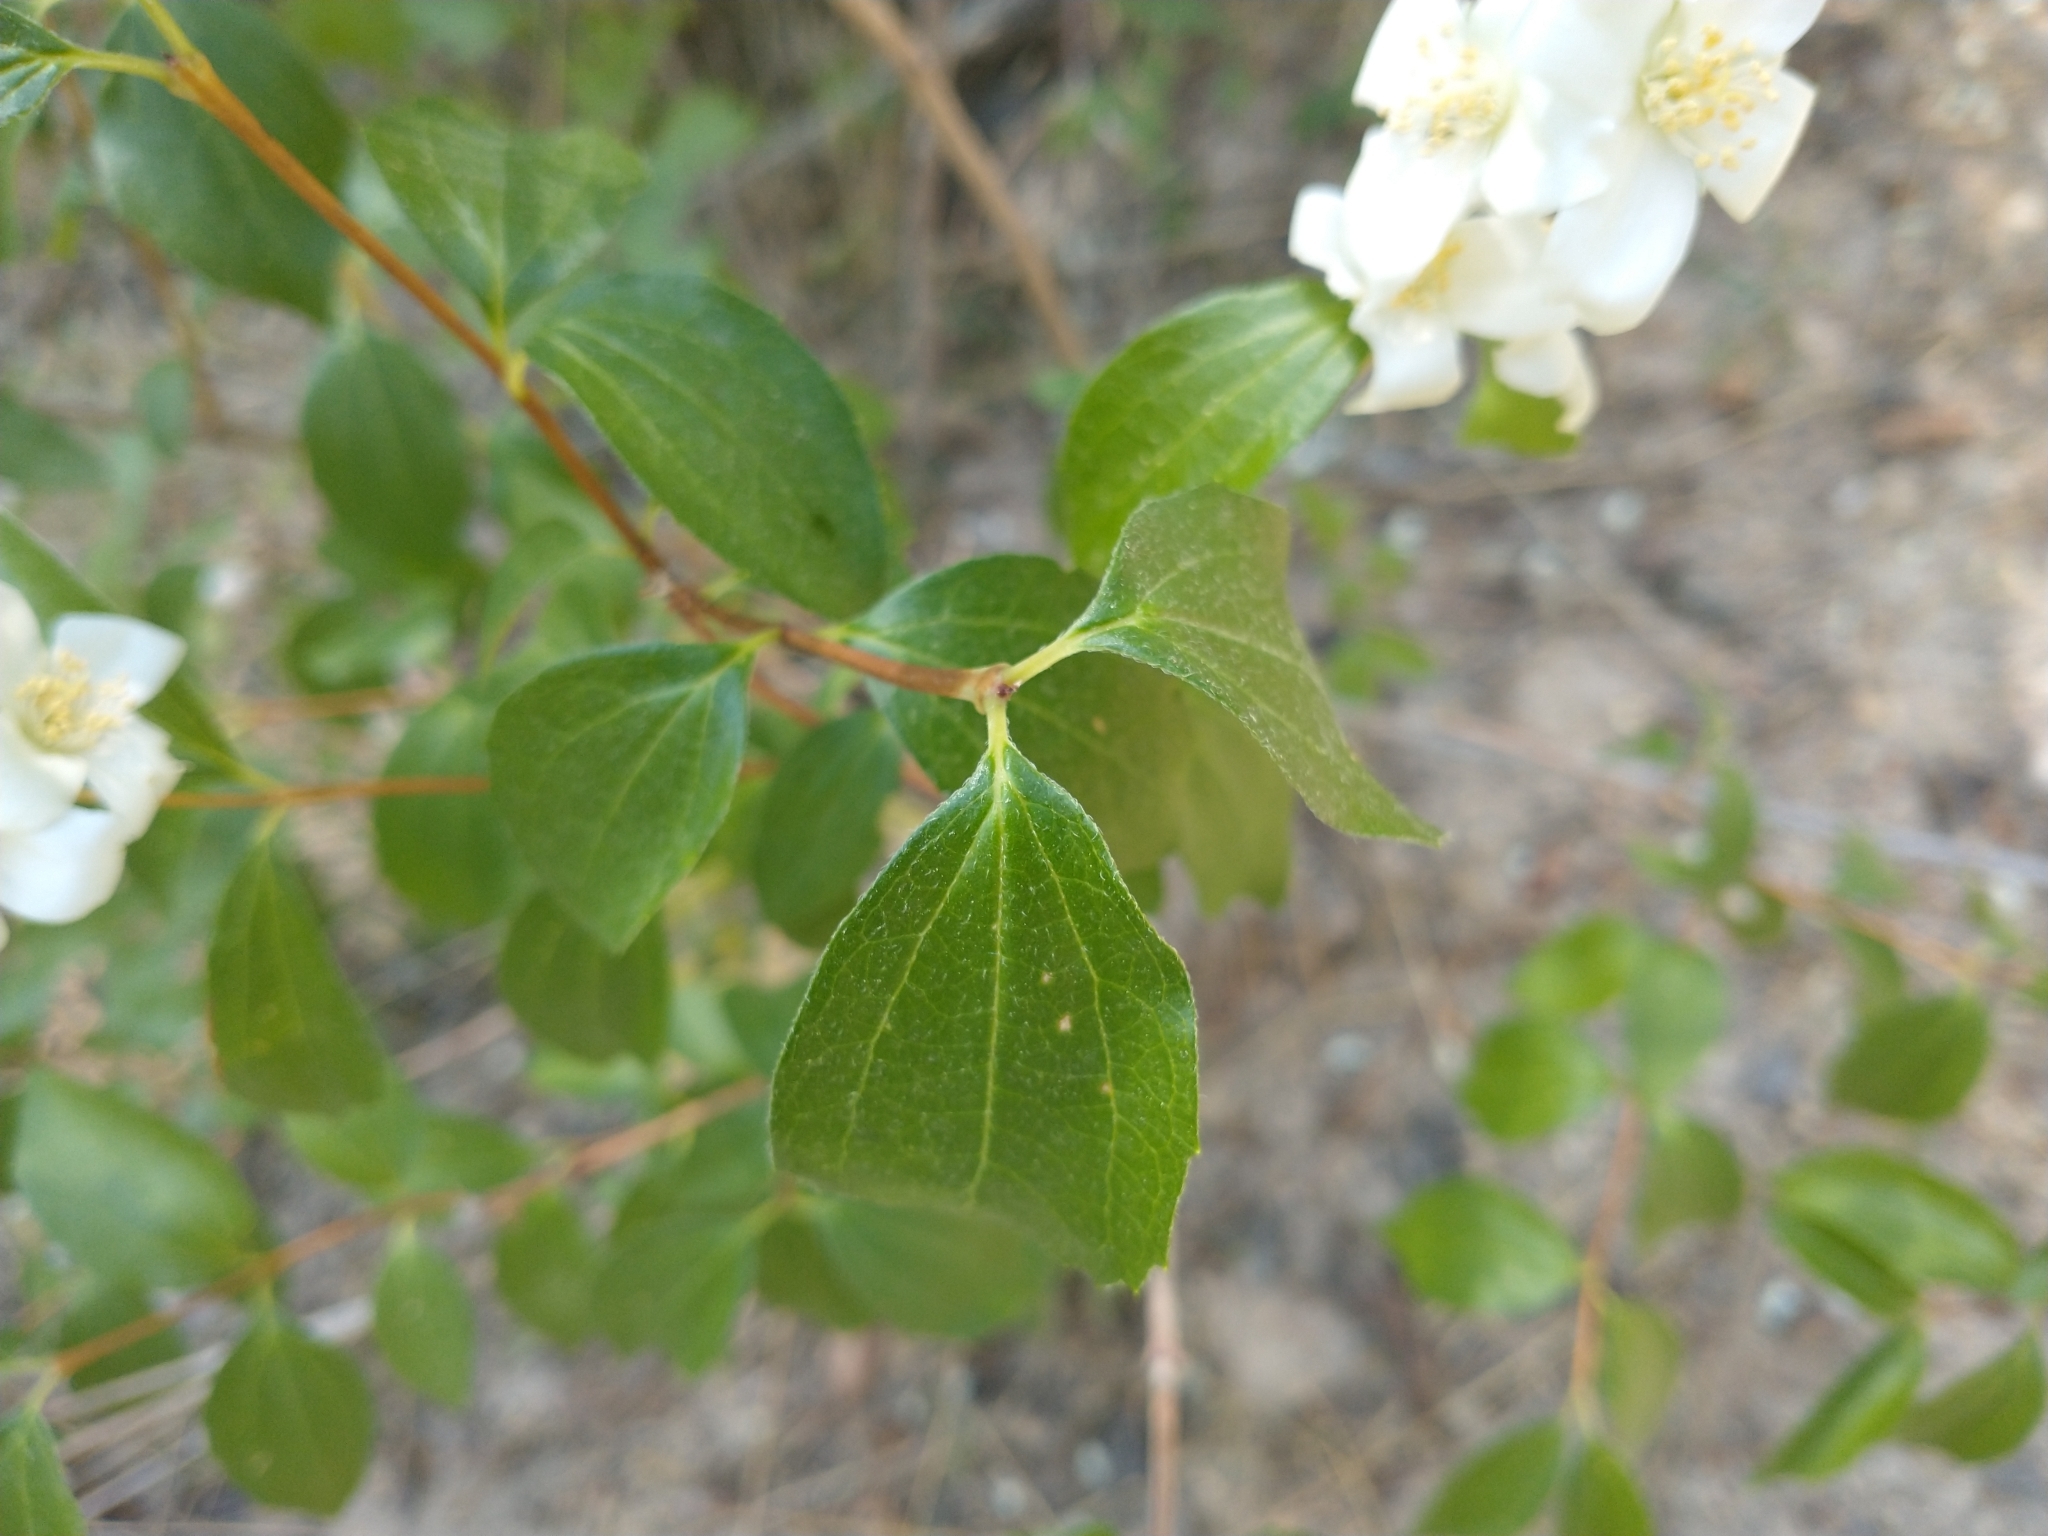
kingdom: Plantae
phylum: Tracheophyta
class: Magnoliopsida
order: Cornales
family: Hydrangeaceae
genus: Philadelphus
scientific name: Philadelphus lewisii
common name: Lewis's mock orange
